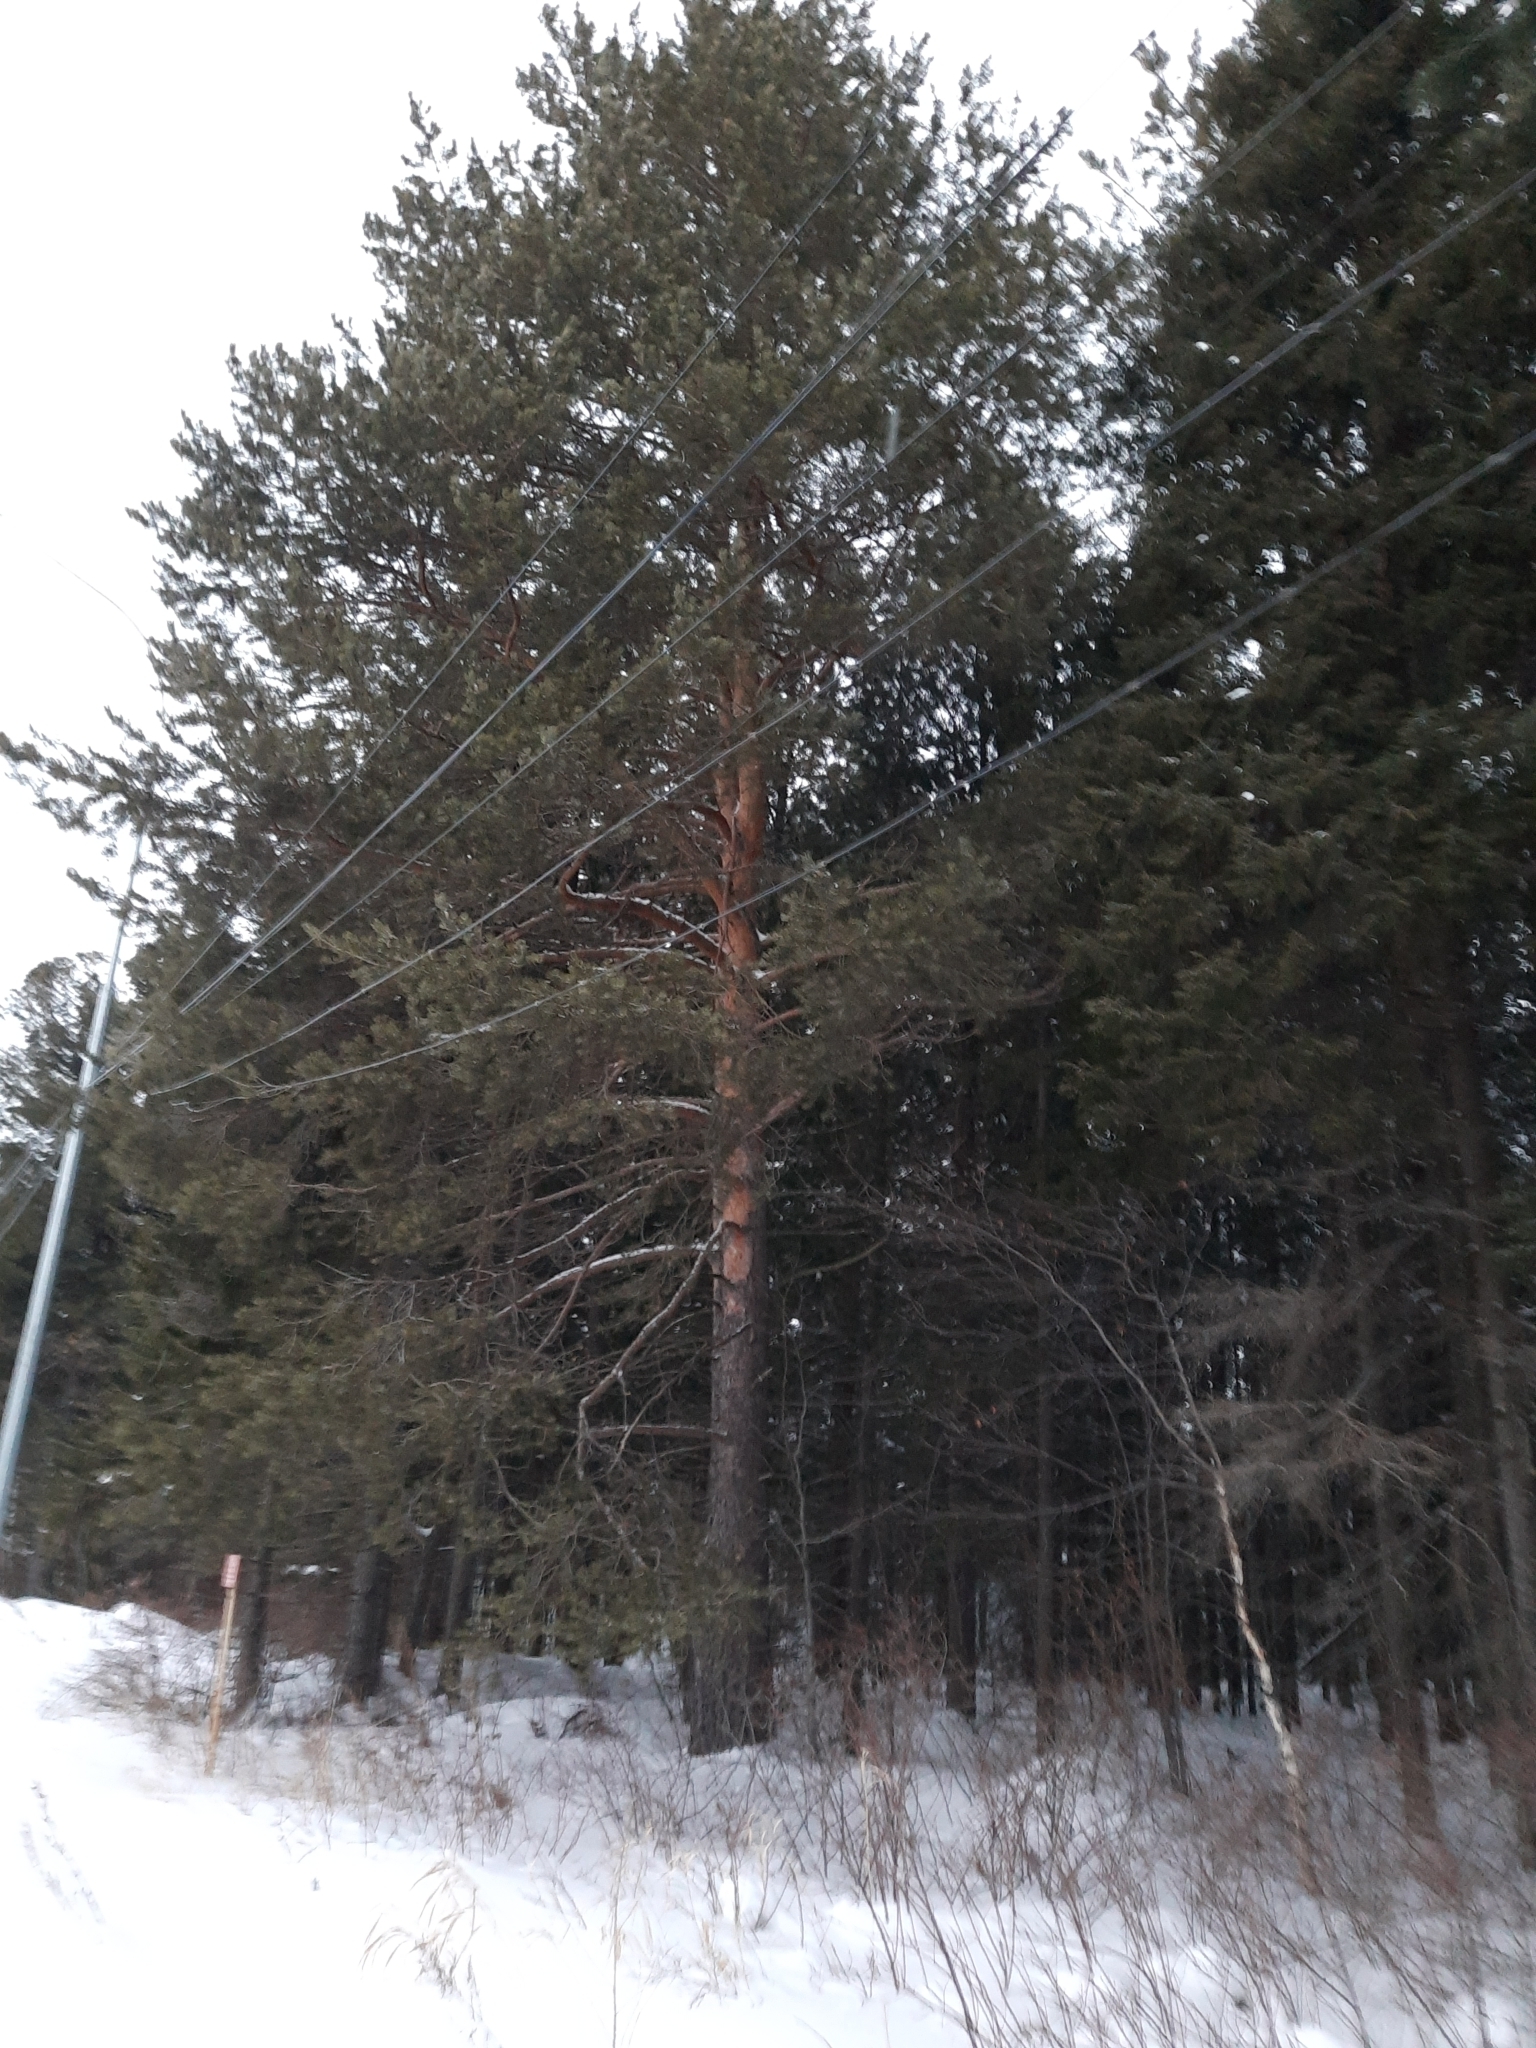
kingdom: Plantae
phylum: Tracheophyta
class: Pinopsida
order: Pinales
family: Pinaceae
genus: Pinus
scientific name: Pinus sylvestris
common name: Scots pine
